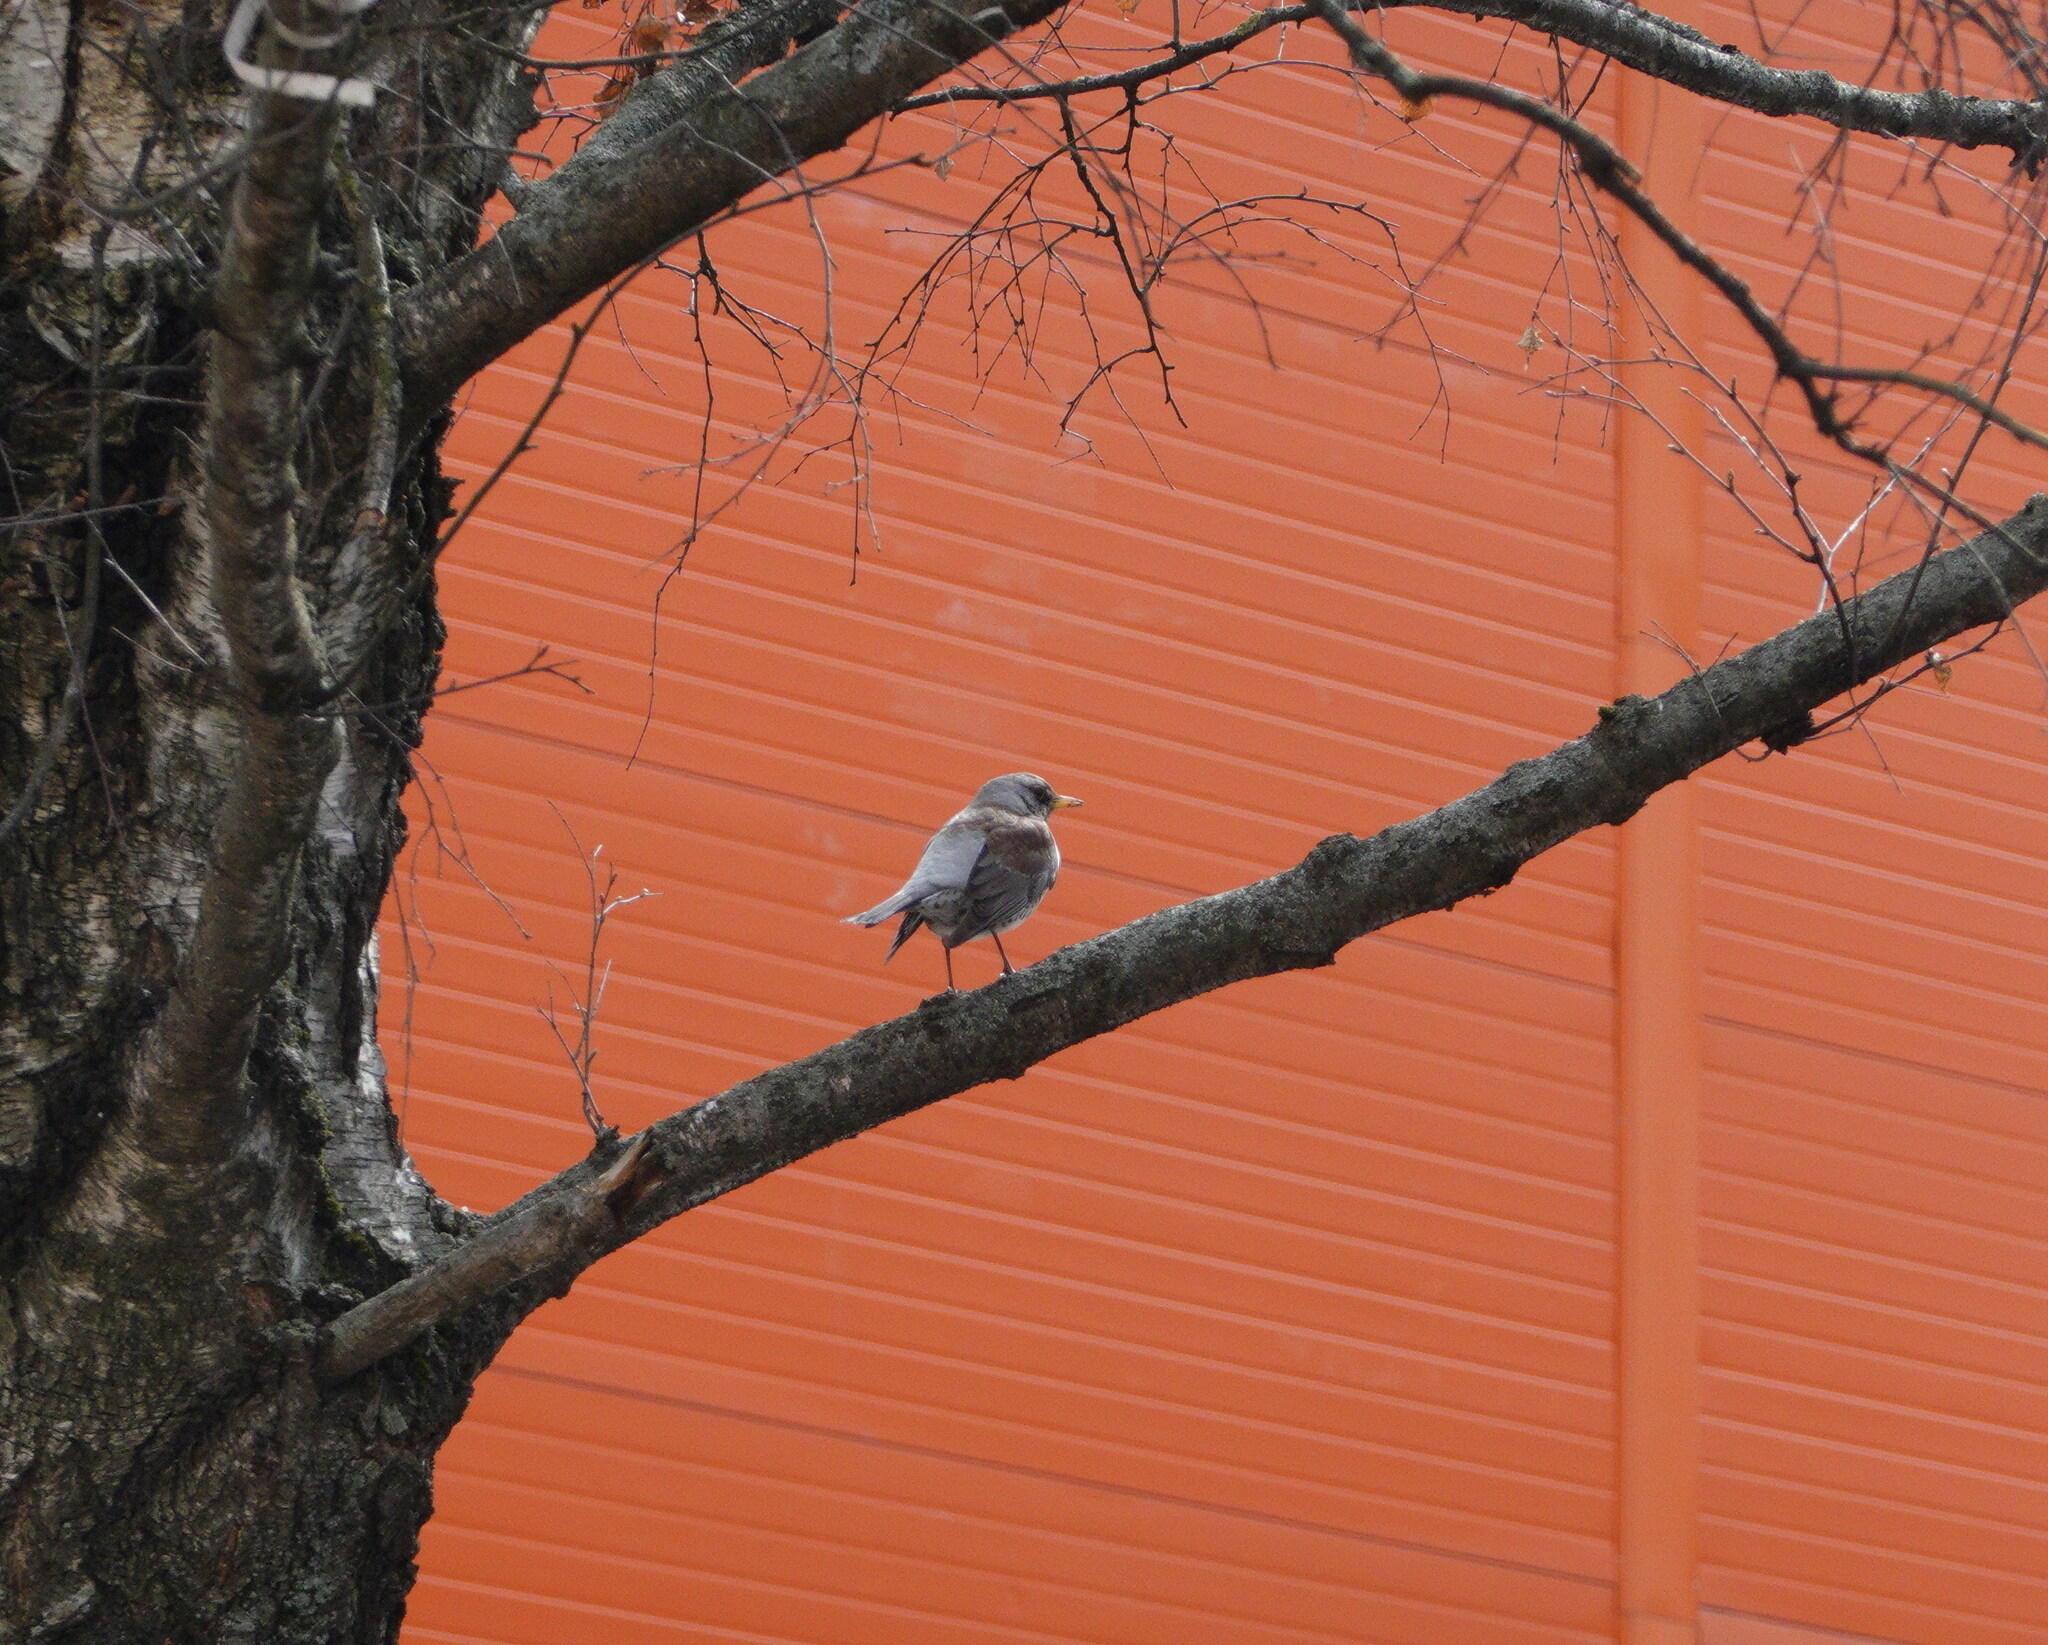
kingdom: Animalia
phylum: Chordata
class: Aves
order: Passeriformes
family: Turdidae
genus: Turdus
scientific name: Turdus pilaris
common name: Fieldfare
